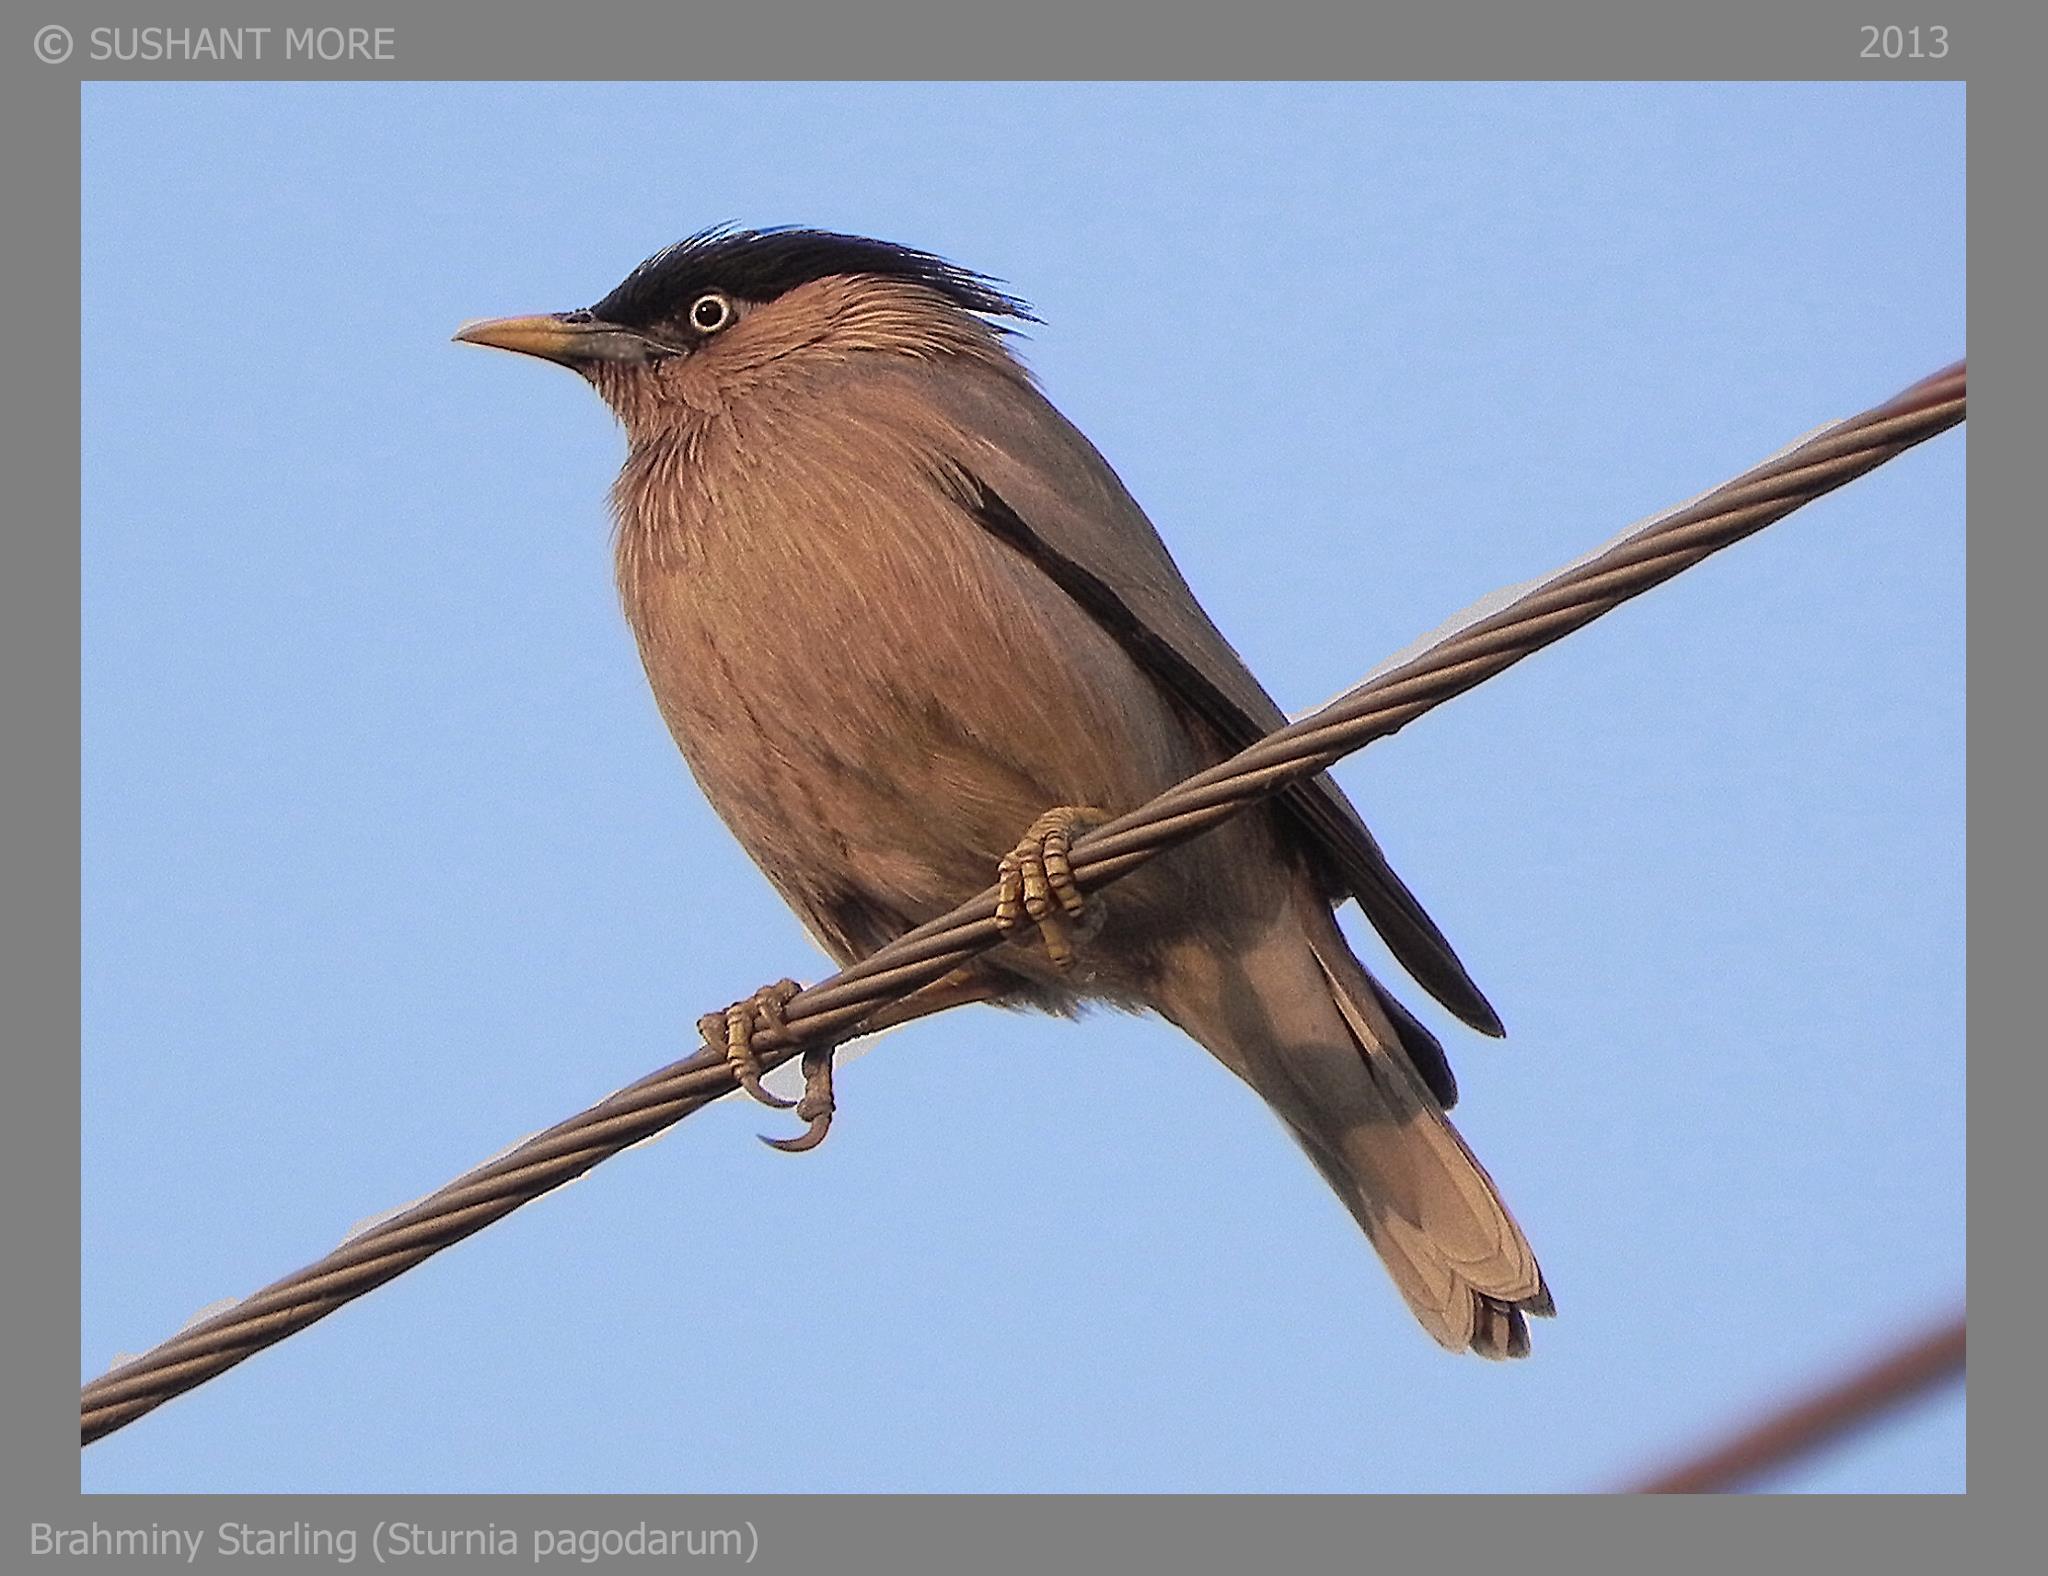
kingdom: Animalia
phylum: Chordata
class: Aves
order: Passeriformes
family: Sturnidae
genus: Sturnia
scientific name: Sturnia pagodarum
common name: Brahminy starling
